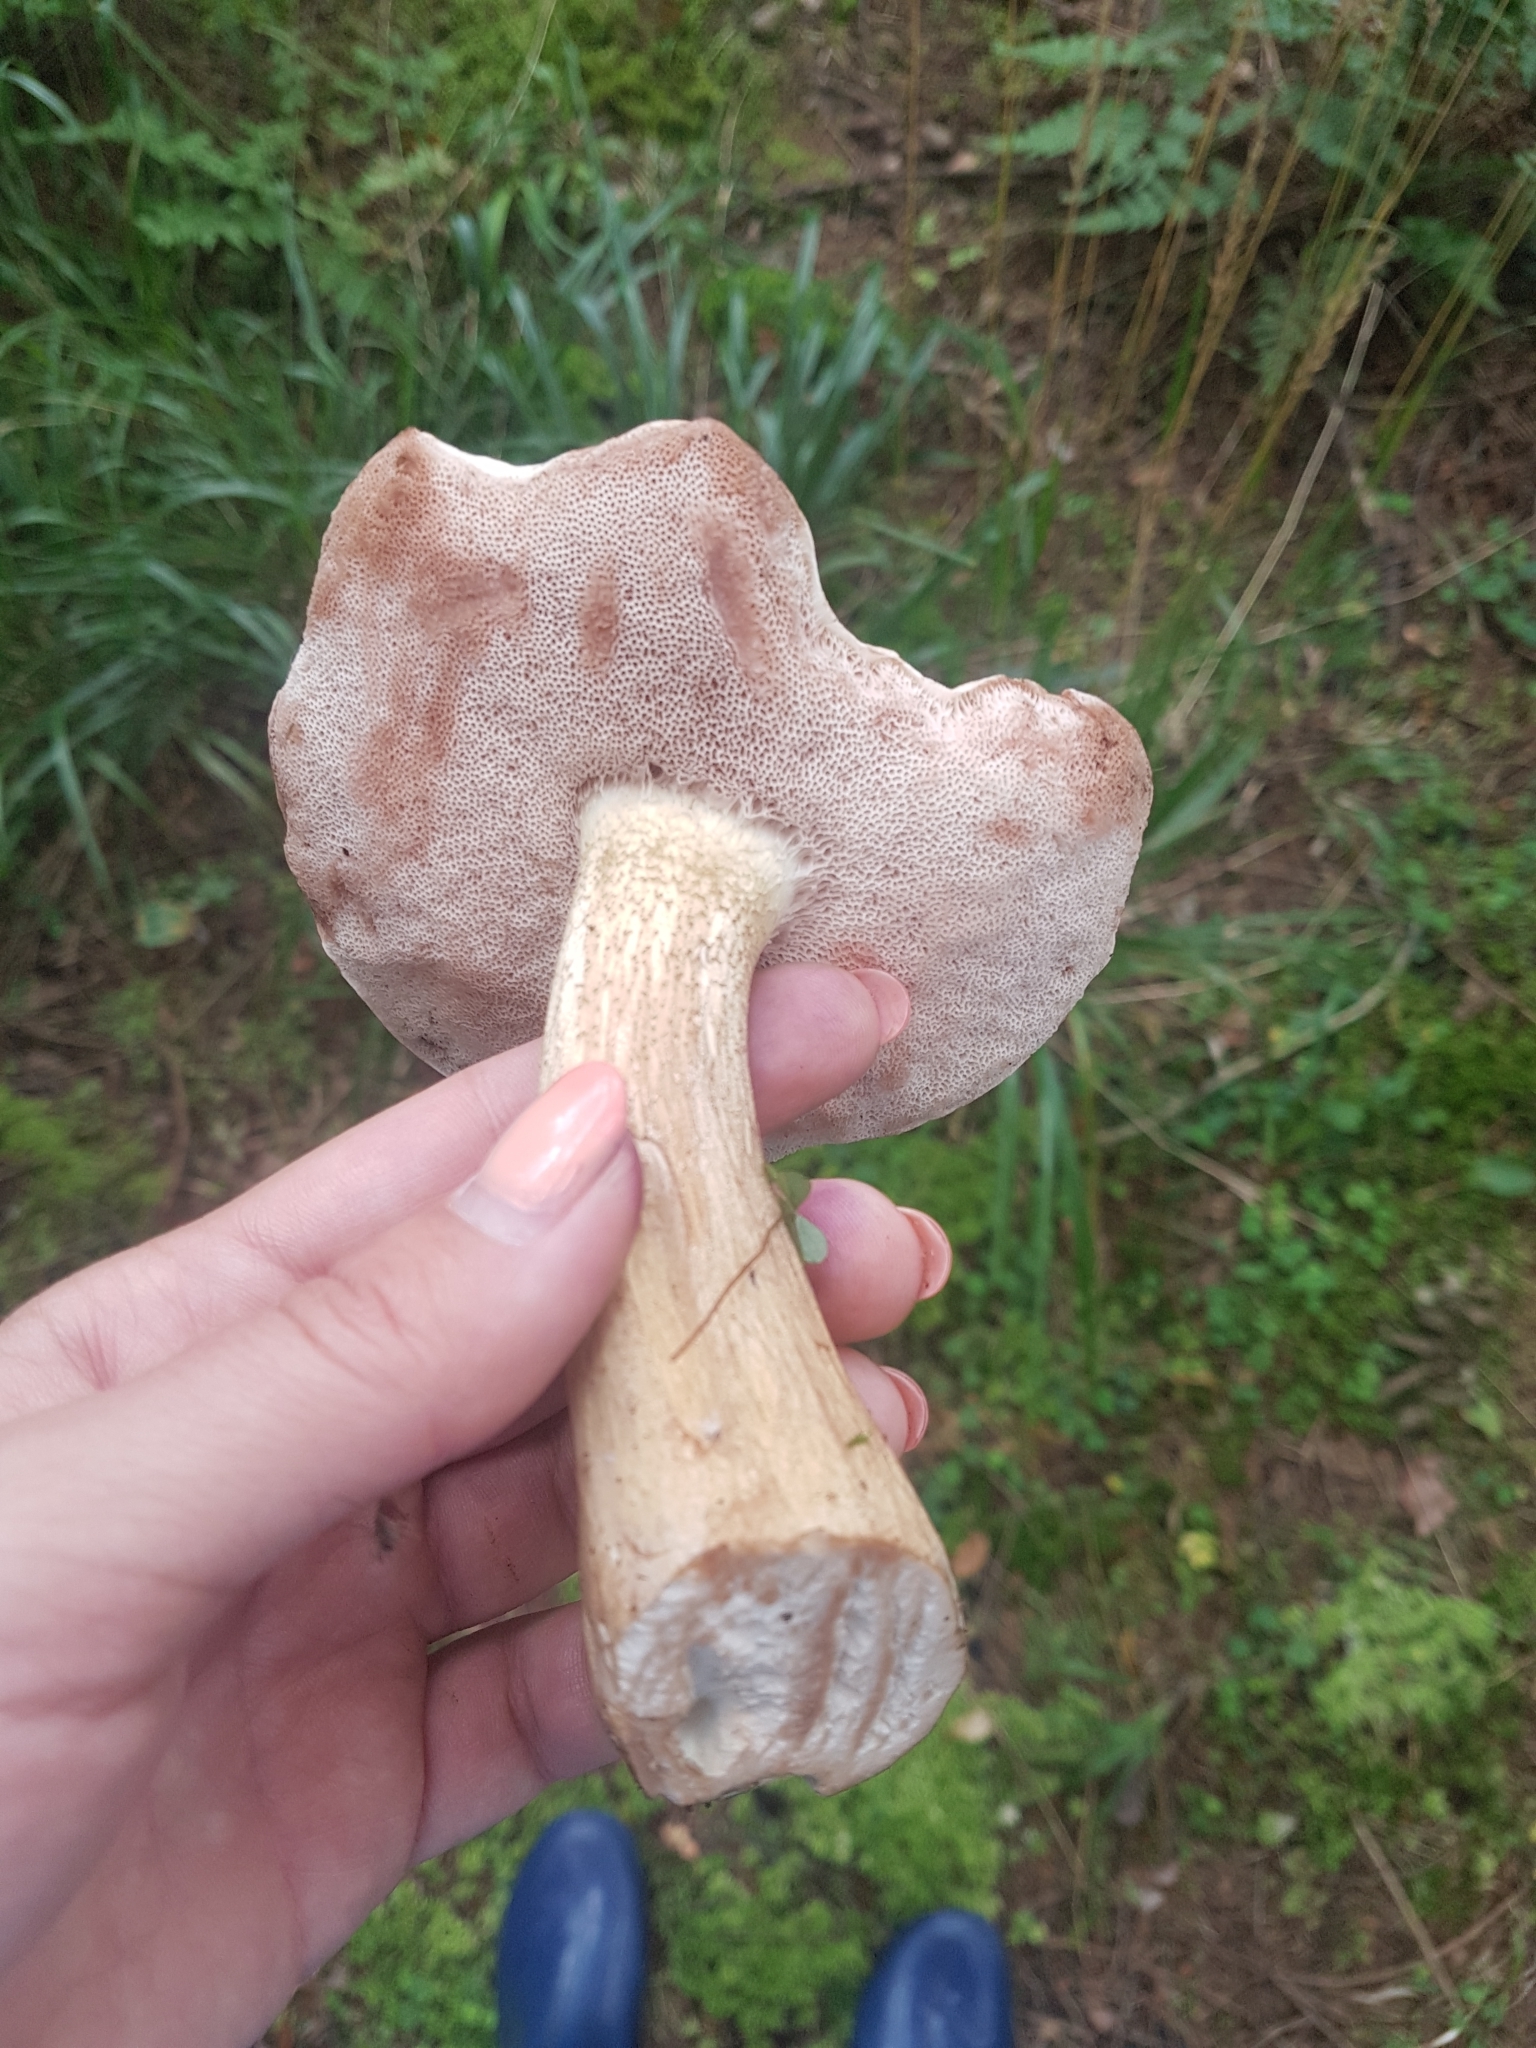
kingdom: Fungi
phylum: Basidiomycota
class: Agaricomycetes
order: Boletales
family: Boletaceae
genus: Tylopilus
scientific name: Tylopilus felleus
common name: Bitter bolete
